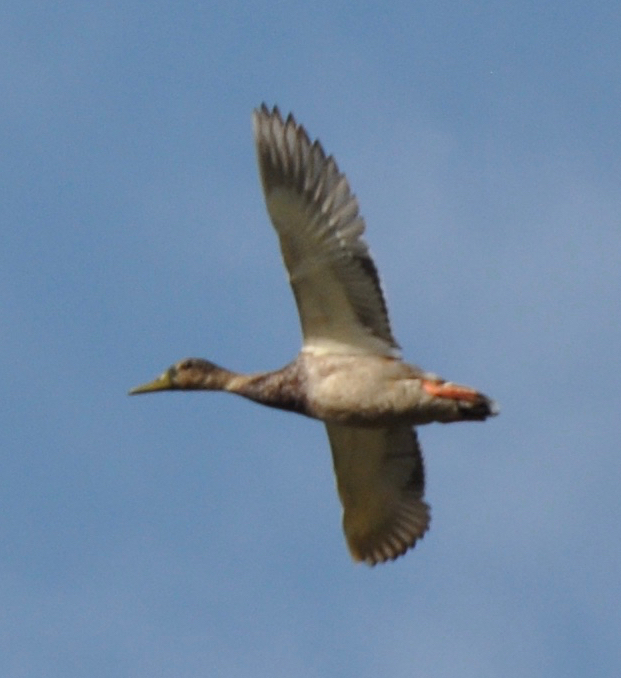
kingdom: Animalia
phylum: Chordata
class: Aves
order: Anseriformes
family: Anatidae
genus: Anas
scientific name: Anas platyrhynchos
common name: Mallard
